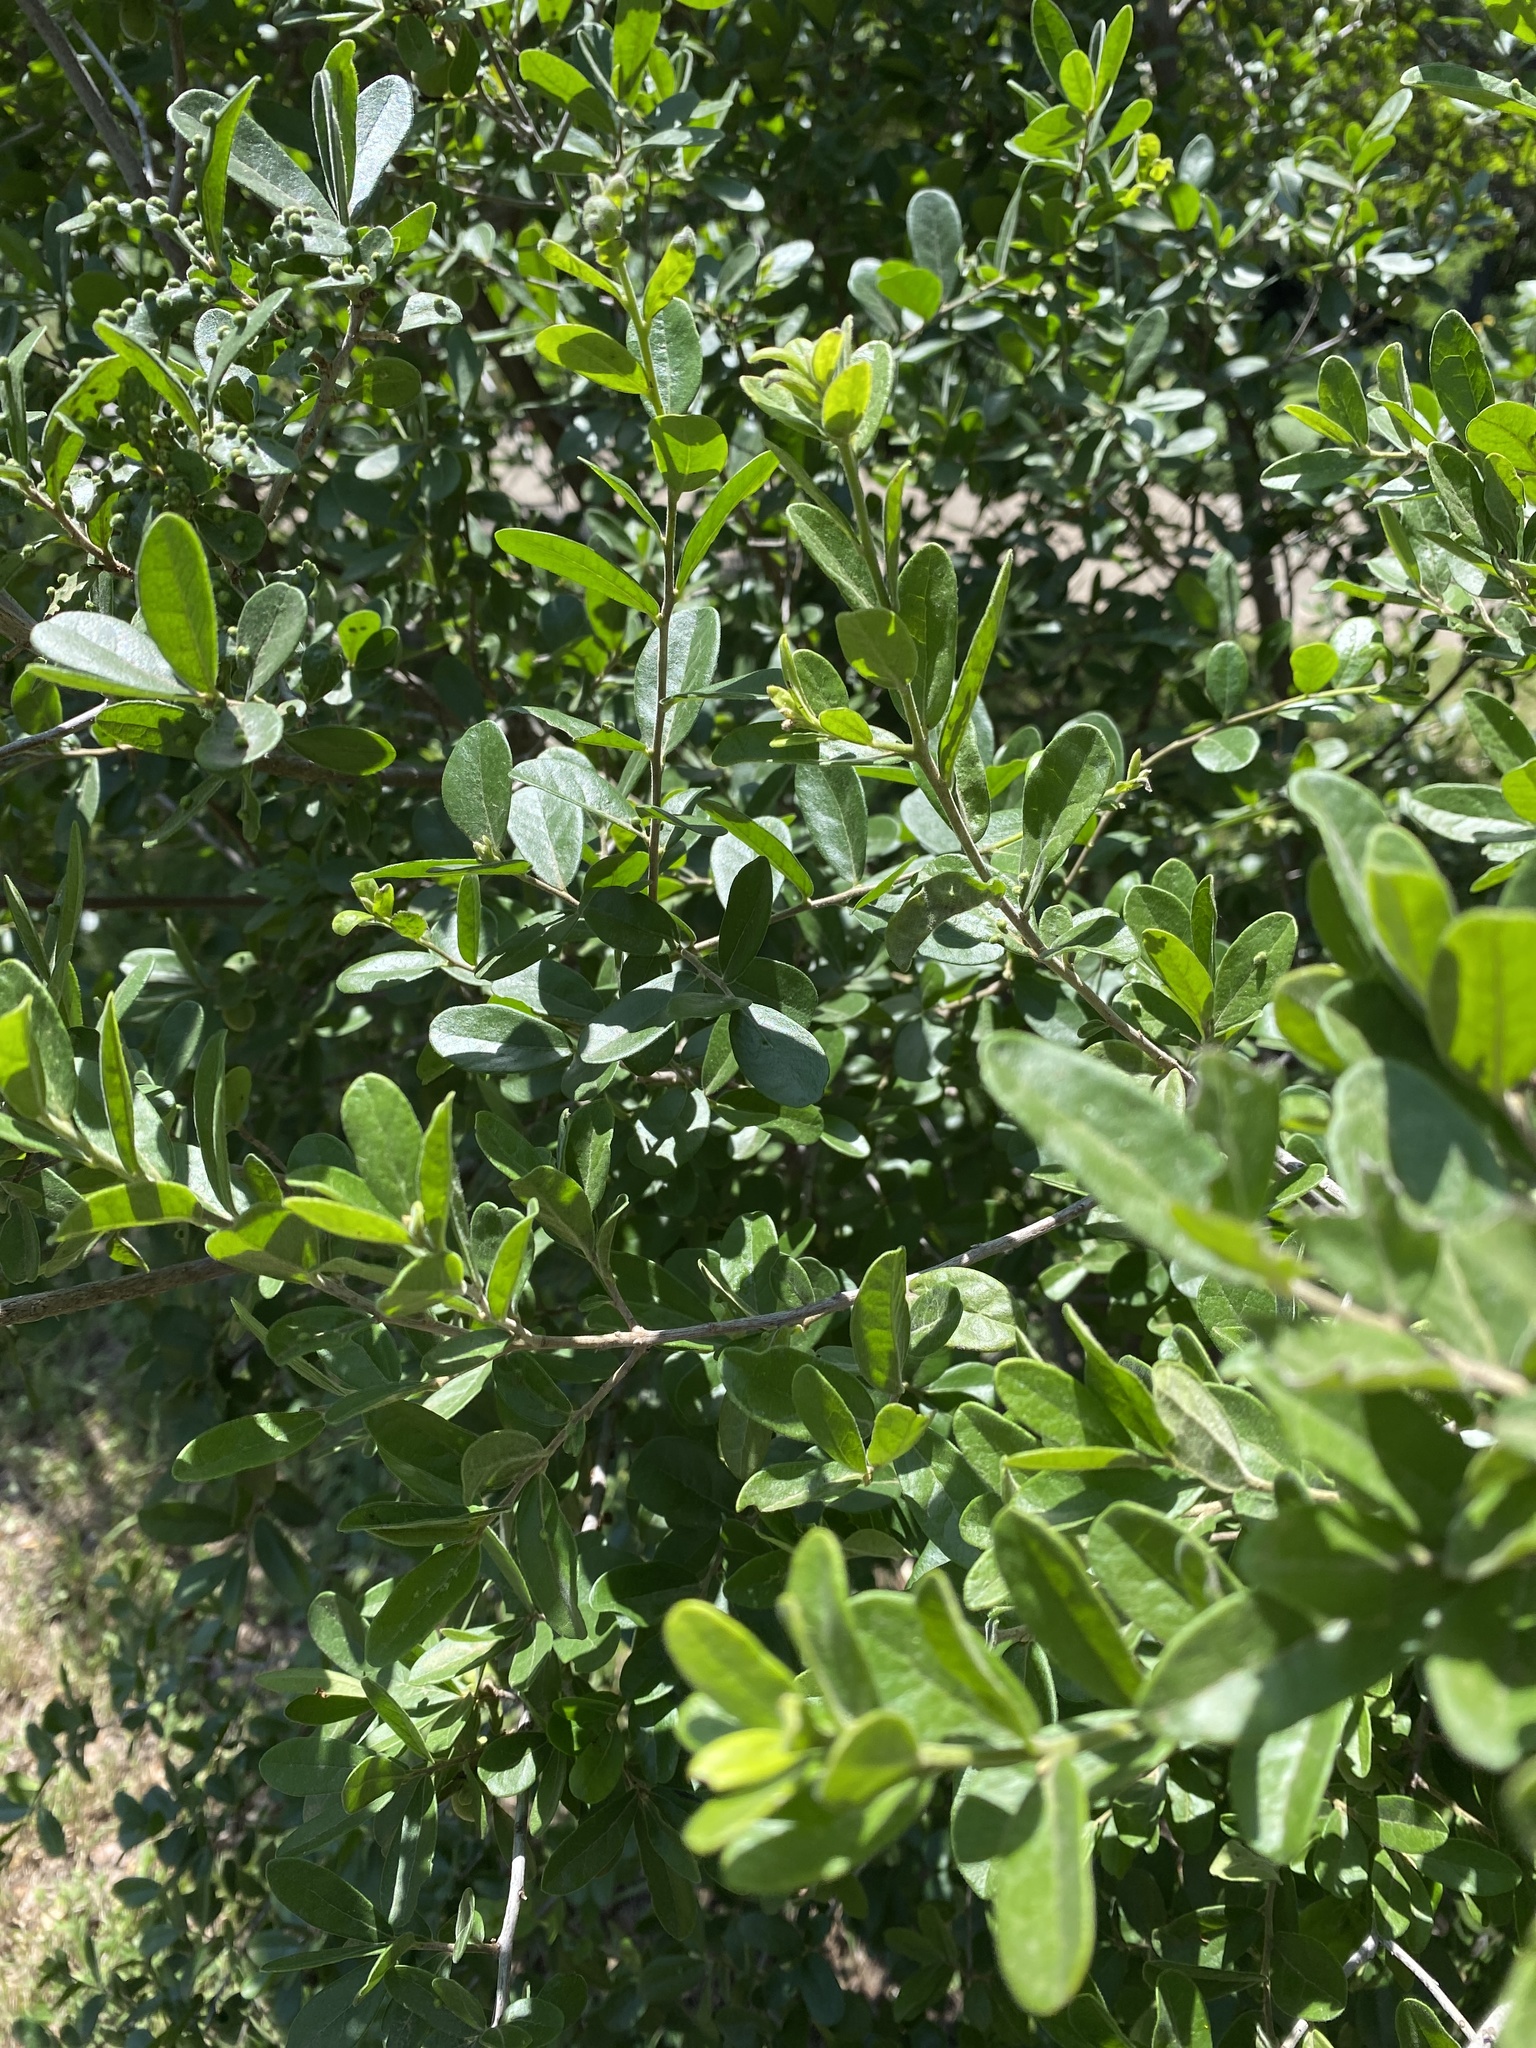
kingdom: Plantae
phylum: Tracheophyta
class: Magnoliopsida
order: Ericales
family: Ebenaceae
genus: Diospyros
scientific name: Diospyros texana
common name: Texas persimmon
